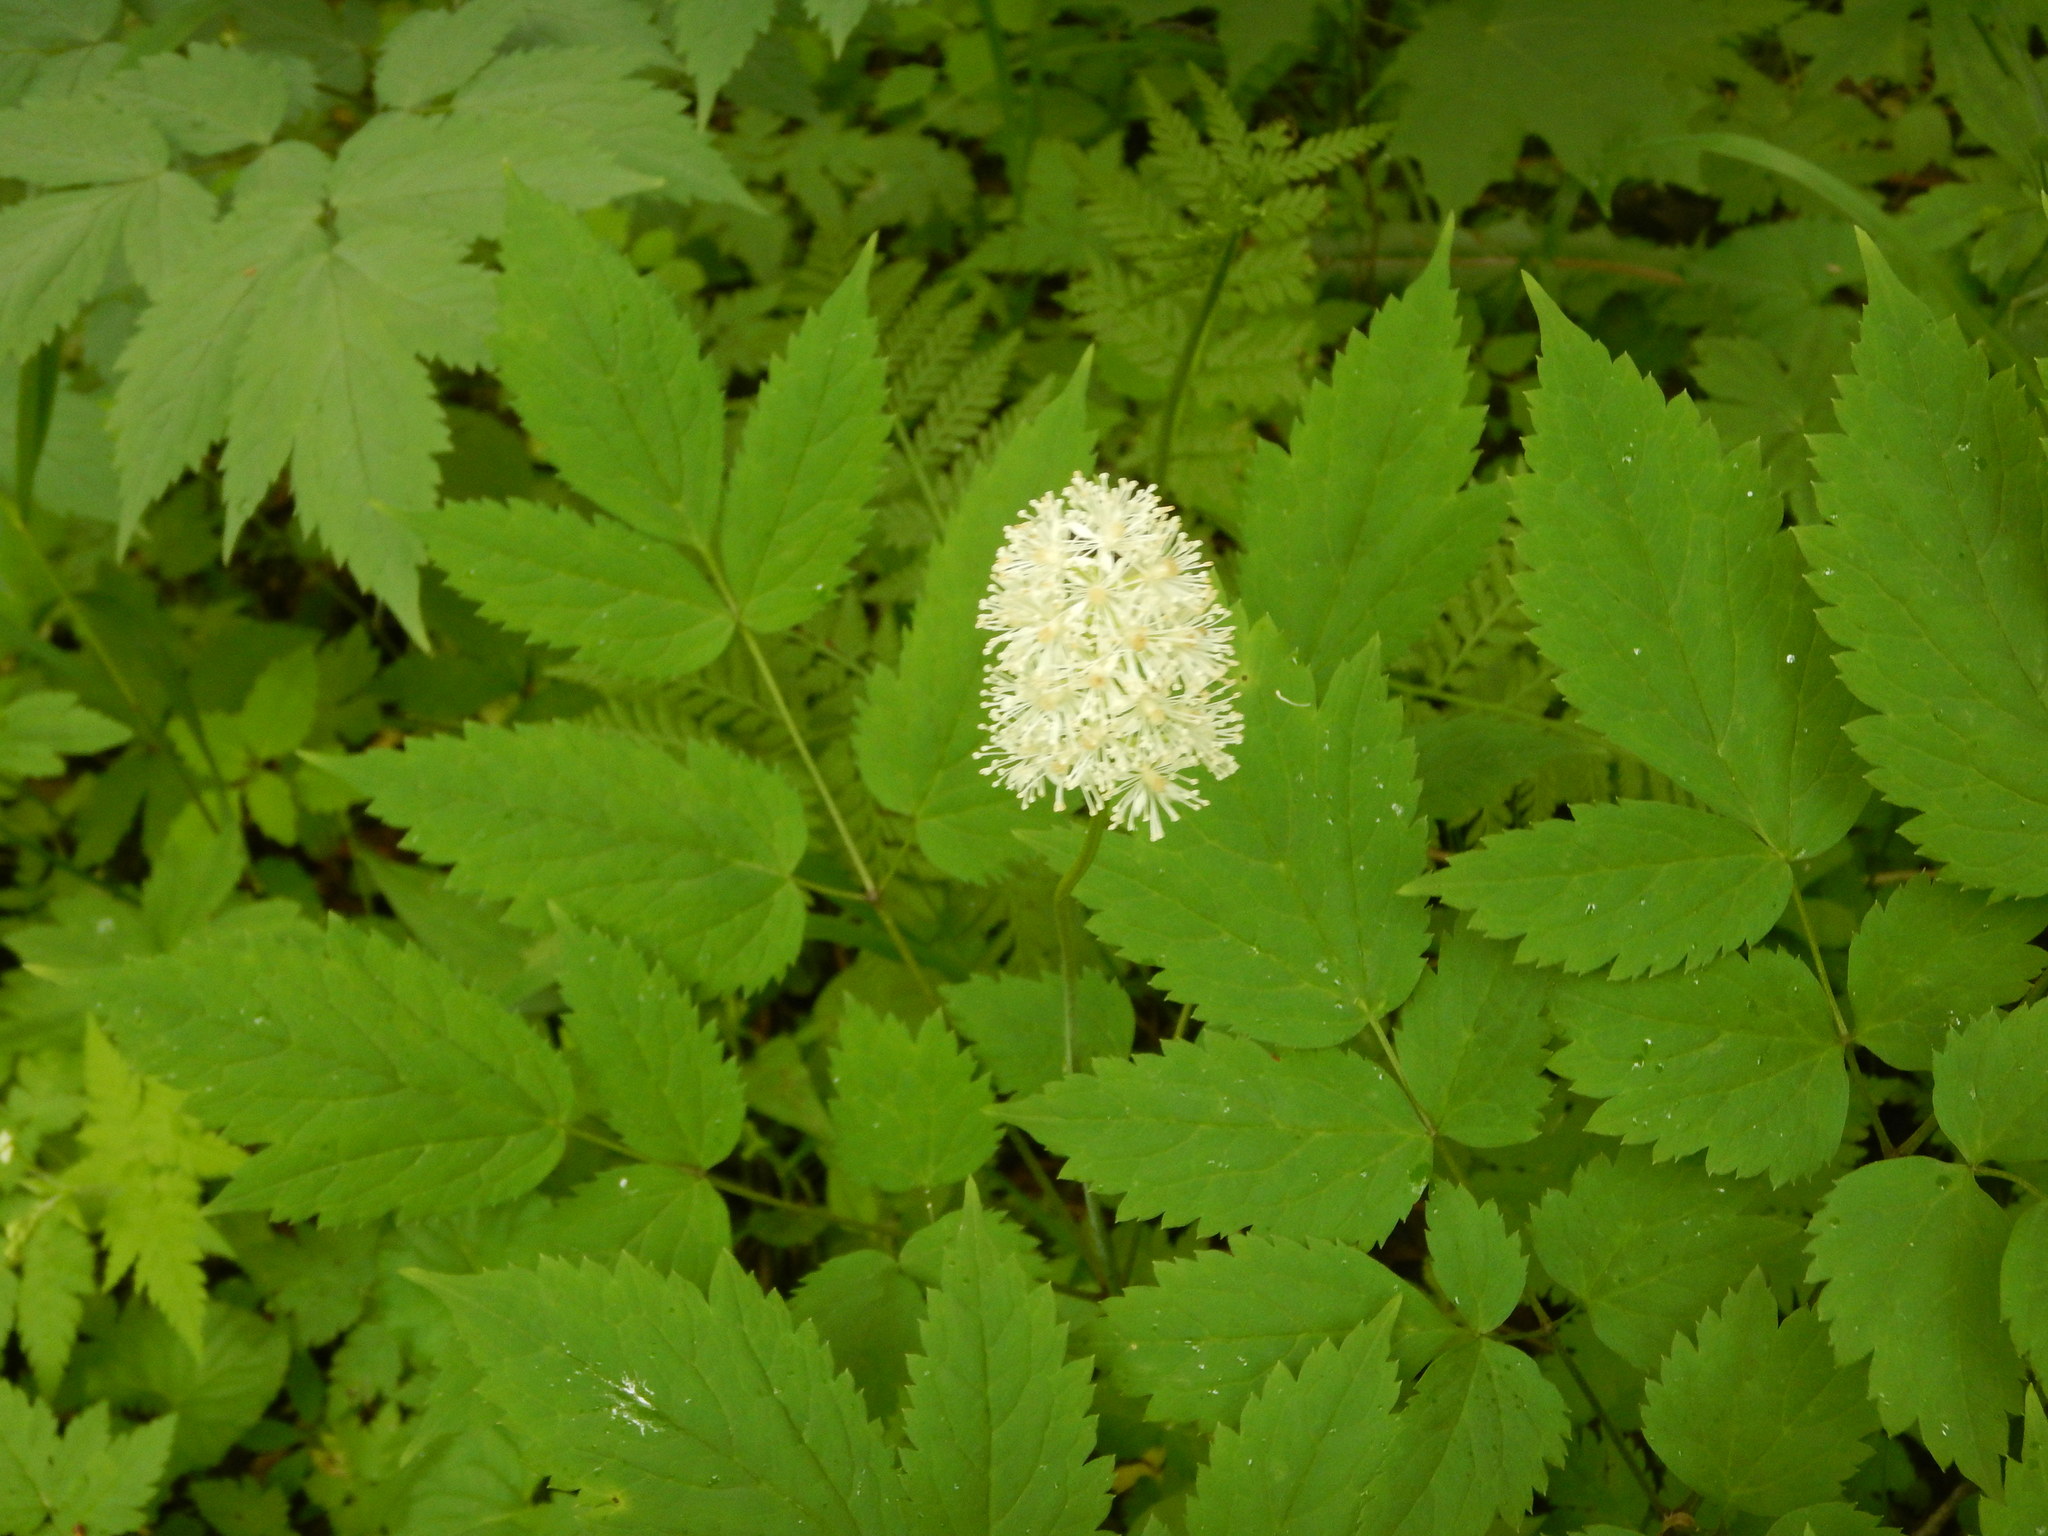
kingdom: Plantae
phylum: Tracheophyta
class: Magnoliopsida
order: Ranunculales
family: Ranunculaceae
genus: Actaea
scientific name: Actaea pachypoda
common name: Doll's-eyes
